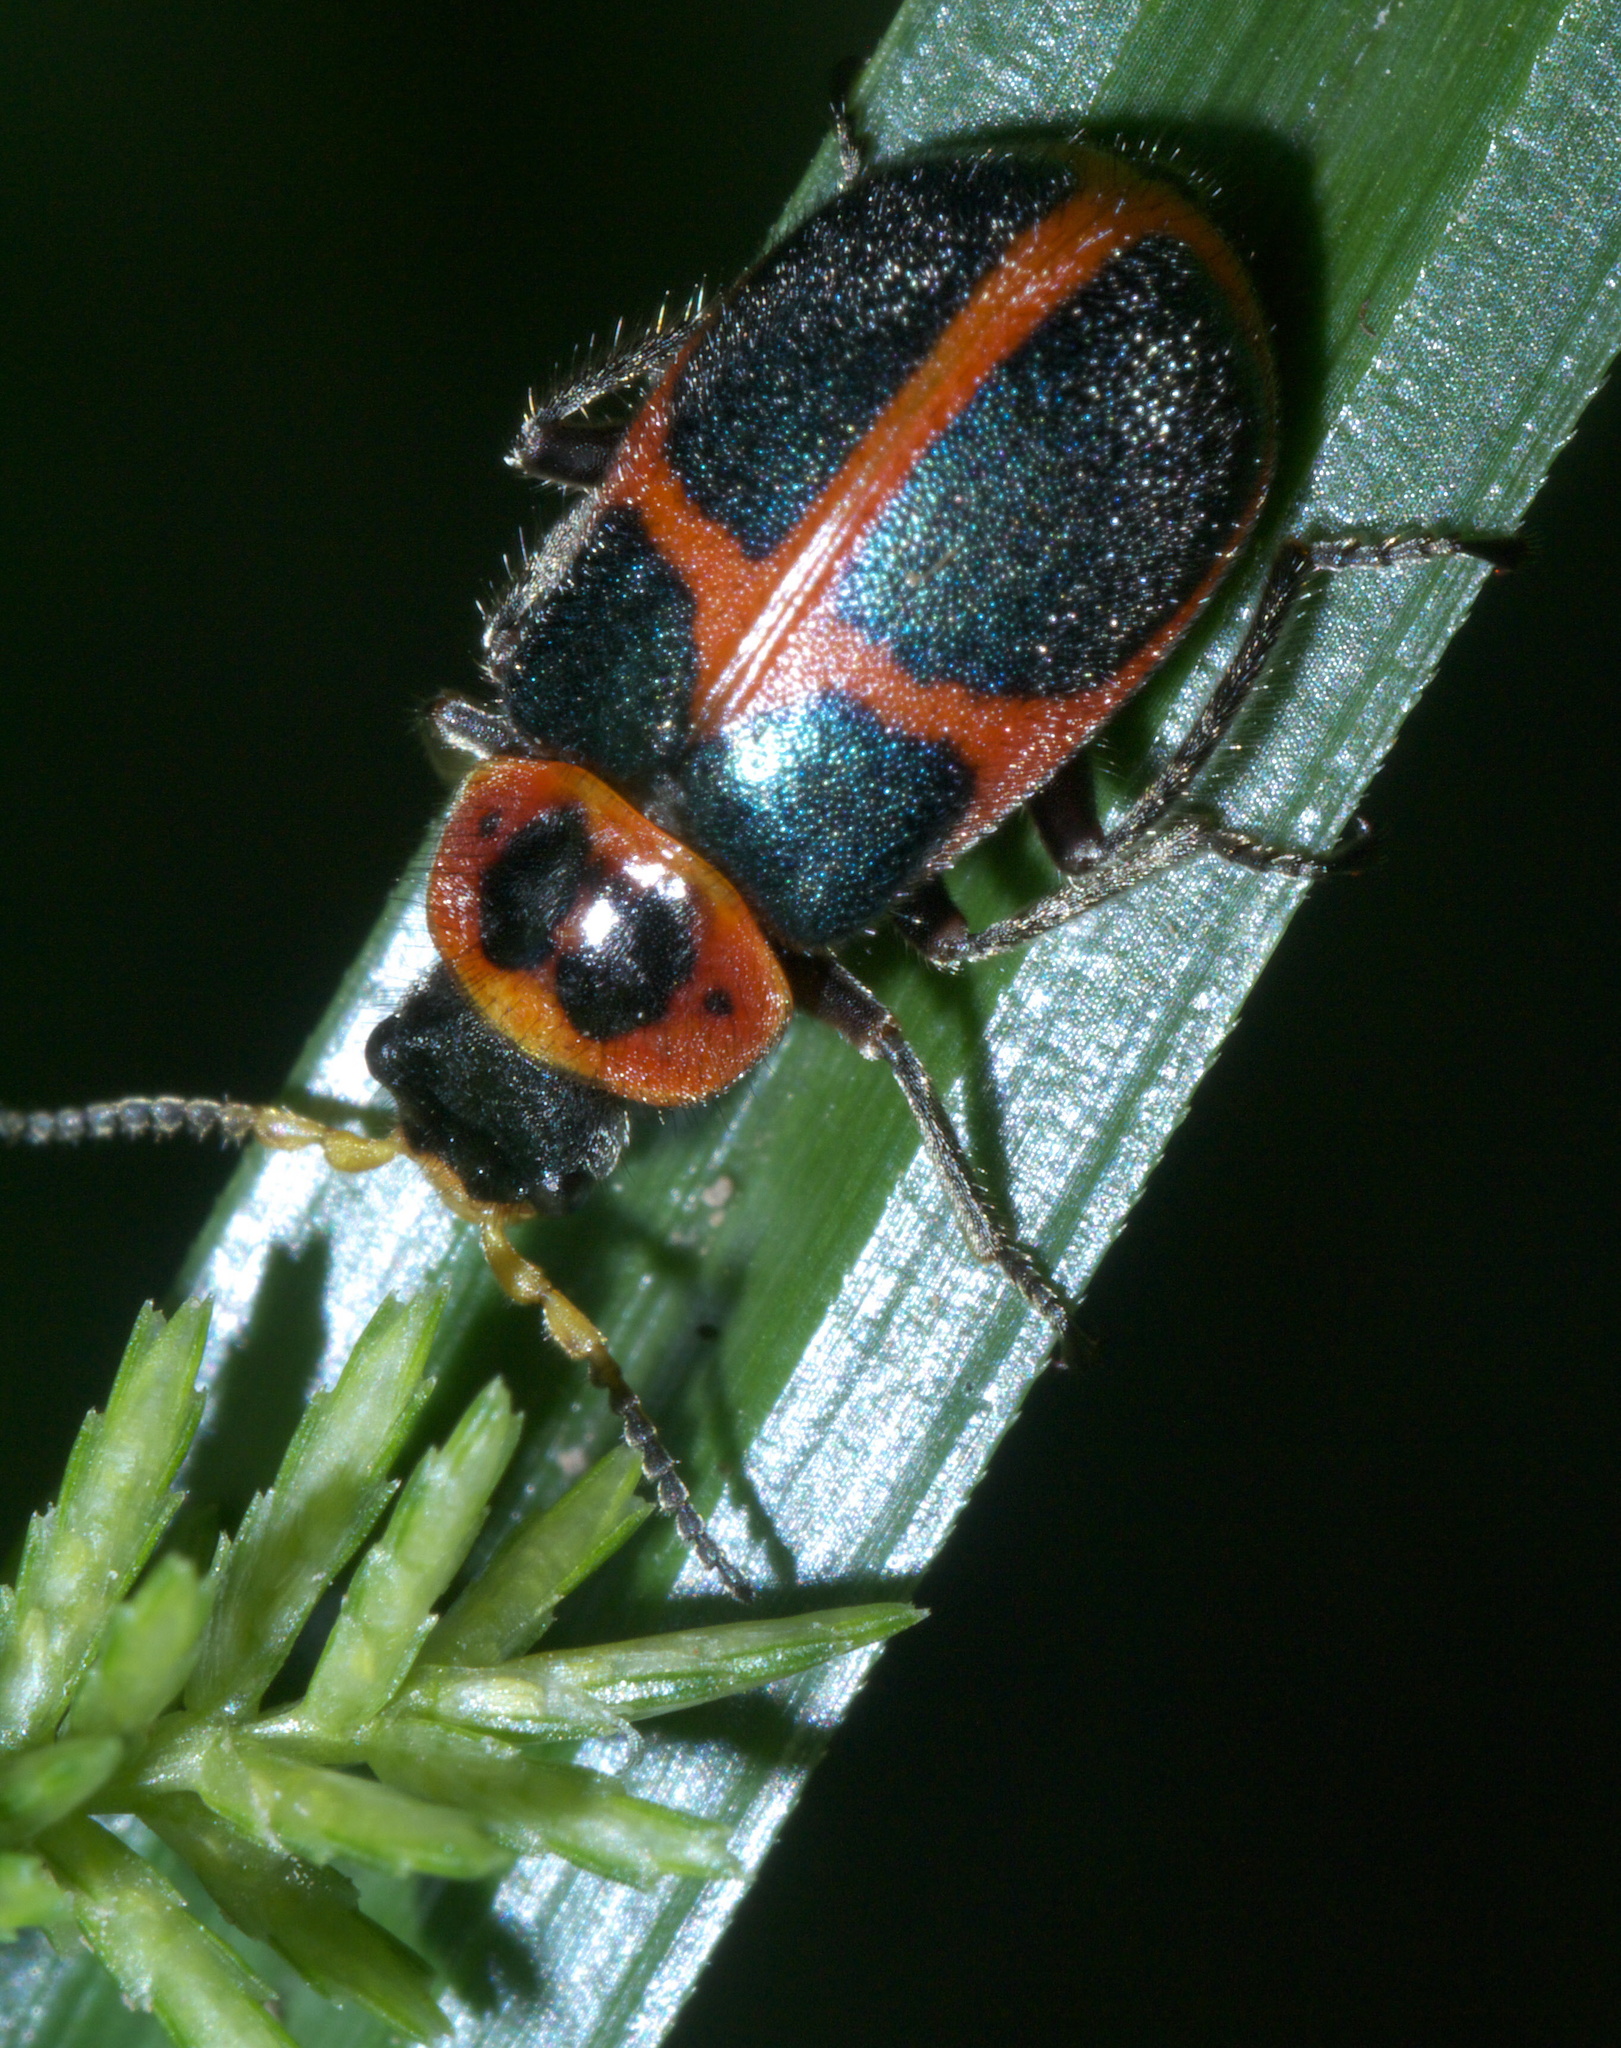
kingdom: Animalia
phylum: Arthropoda
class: Insecta
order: Coleoptera
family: Melyridae
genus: Collops
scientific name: Collops
